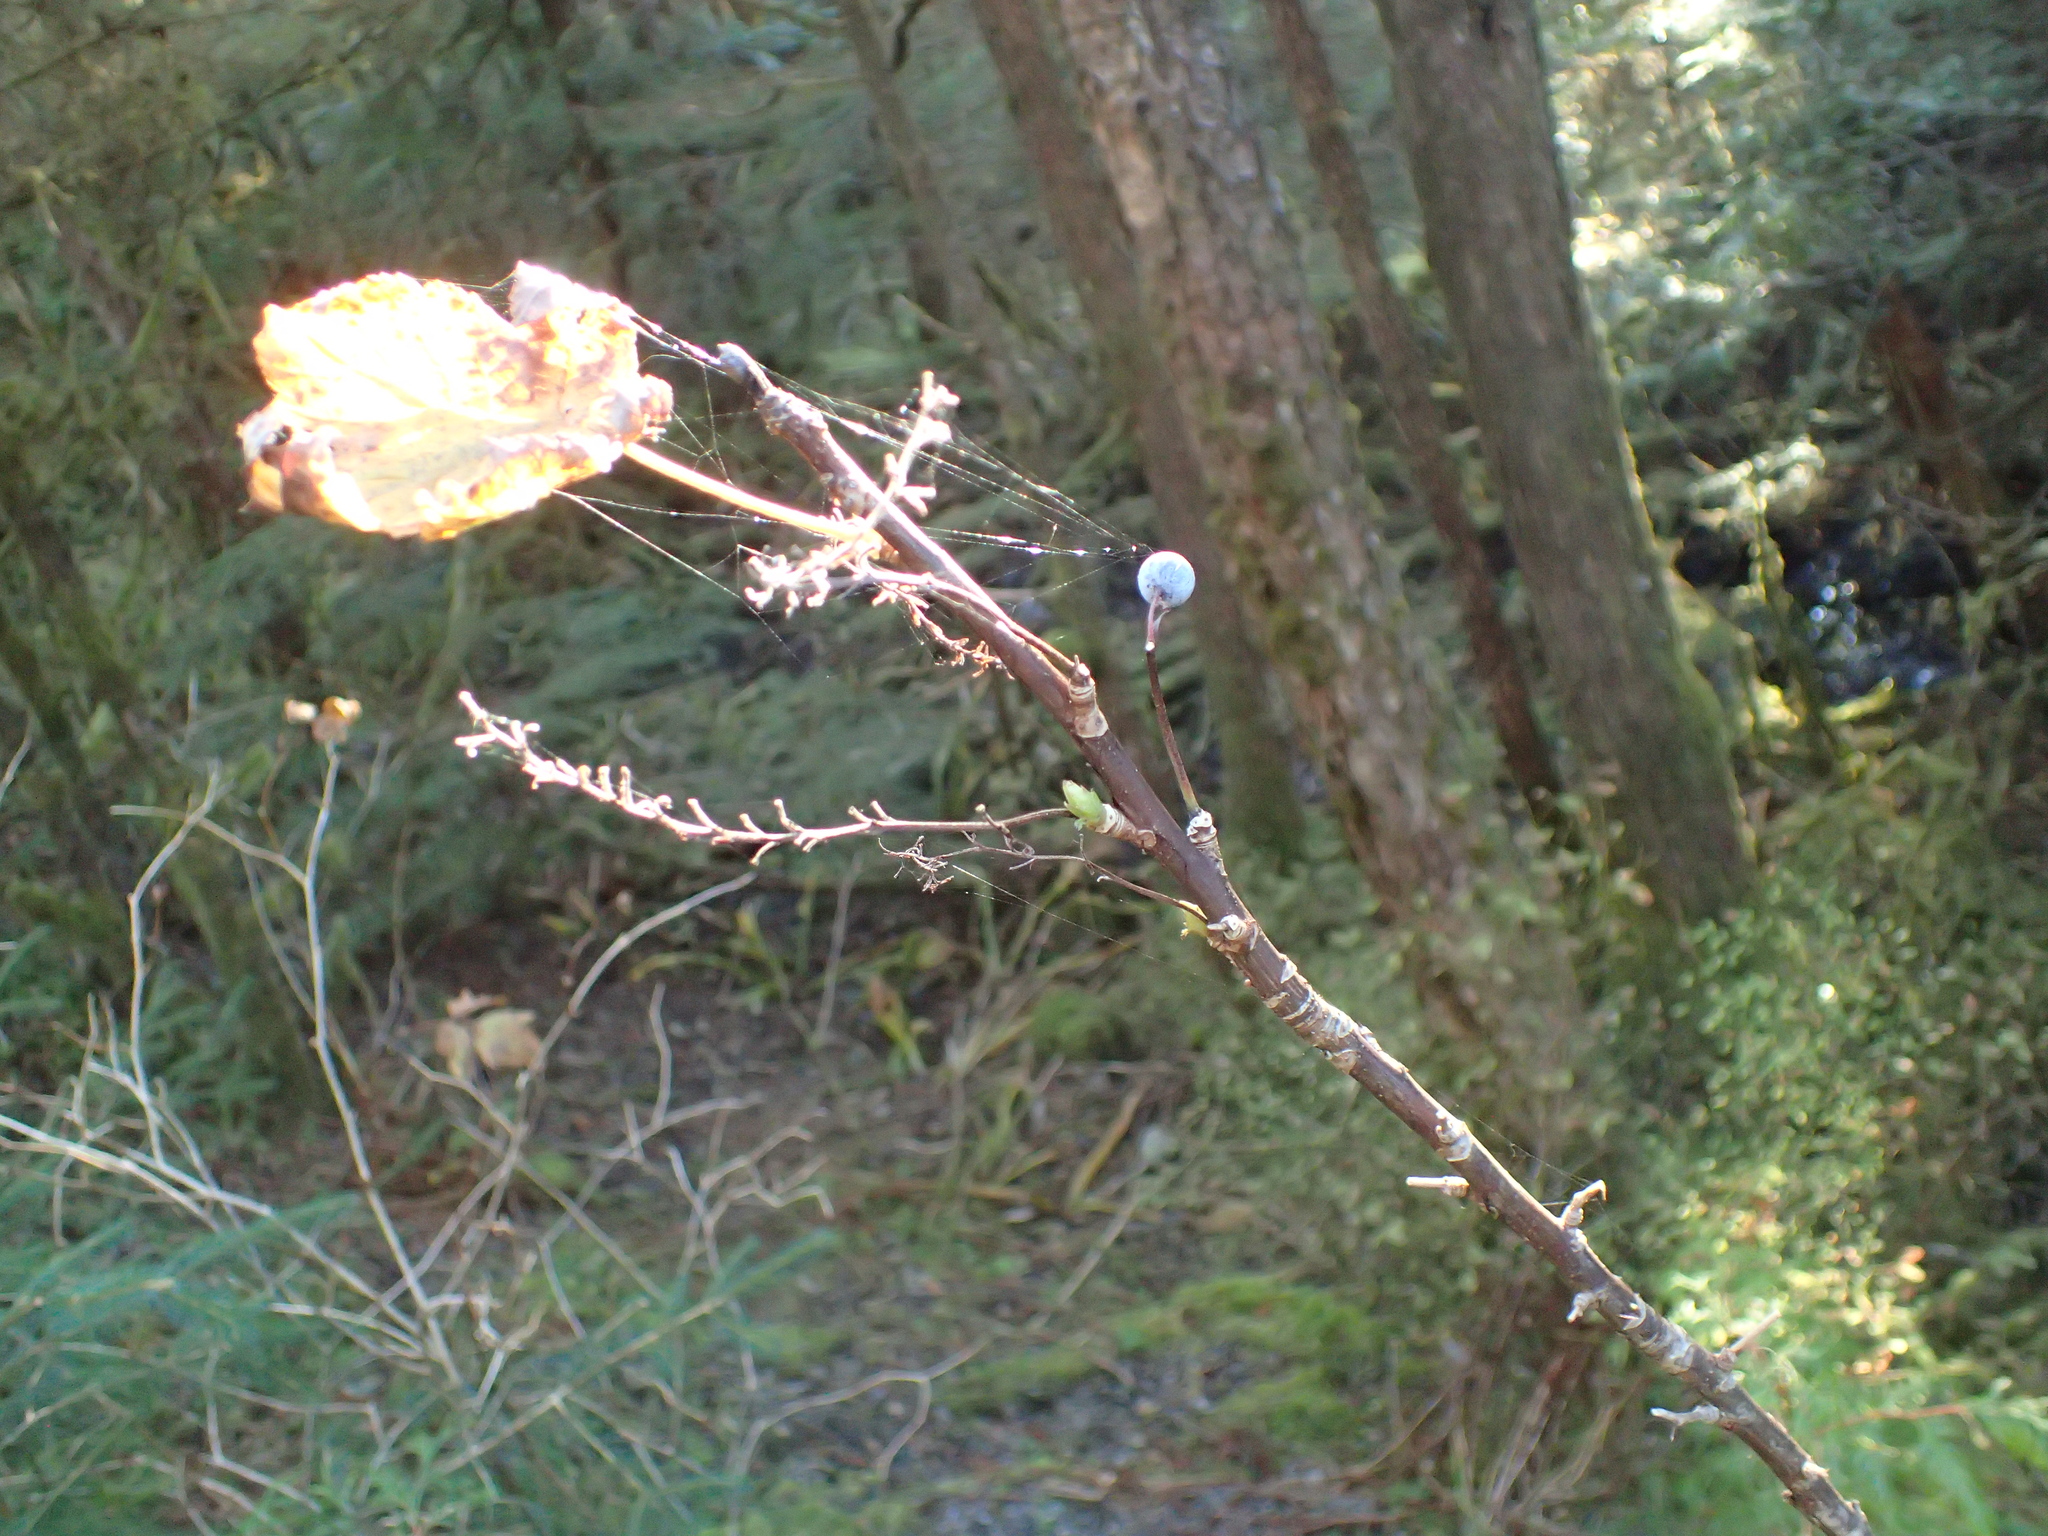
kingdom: Plantae
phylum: Tracheophyta
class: Magnoliopsida
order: Saxifragales
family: Grossulariaceae
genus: Ribes
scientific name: Ribes bracteosum
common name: California black currant
